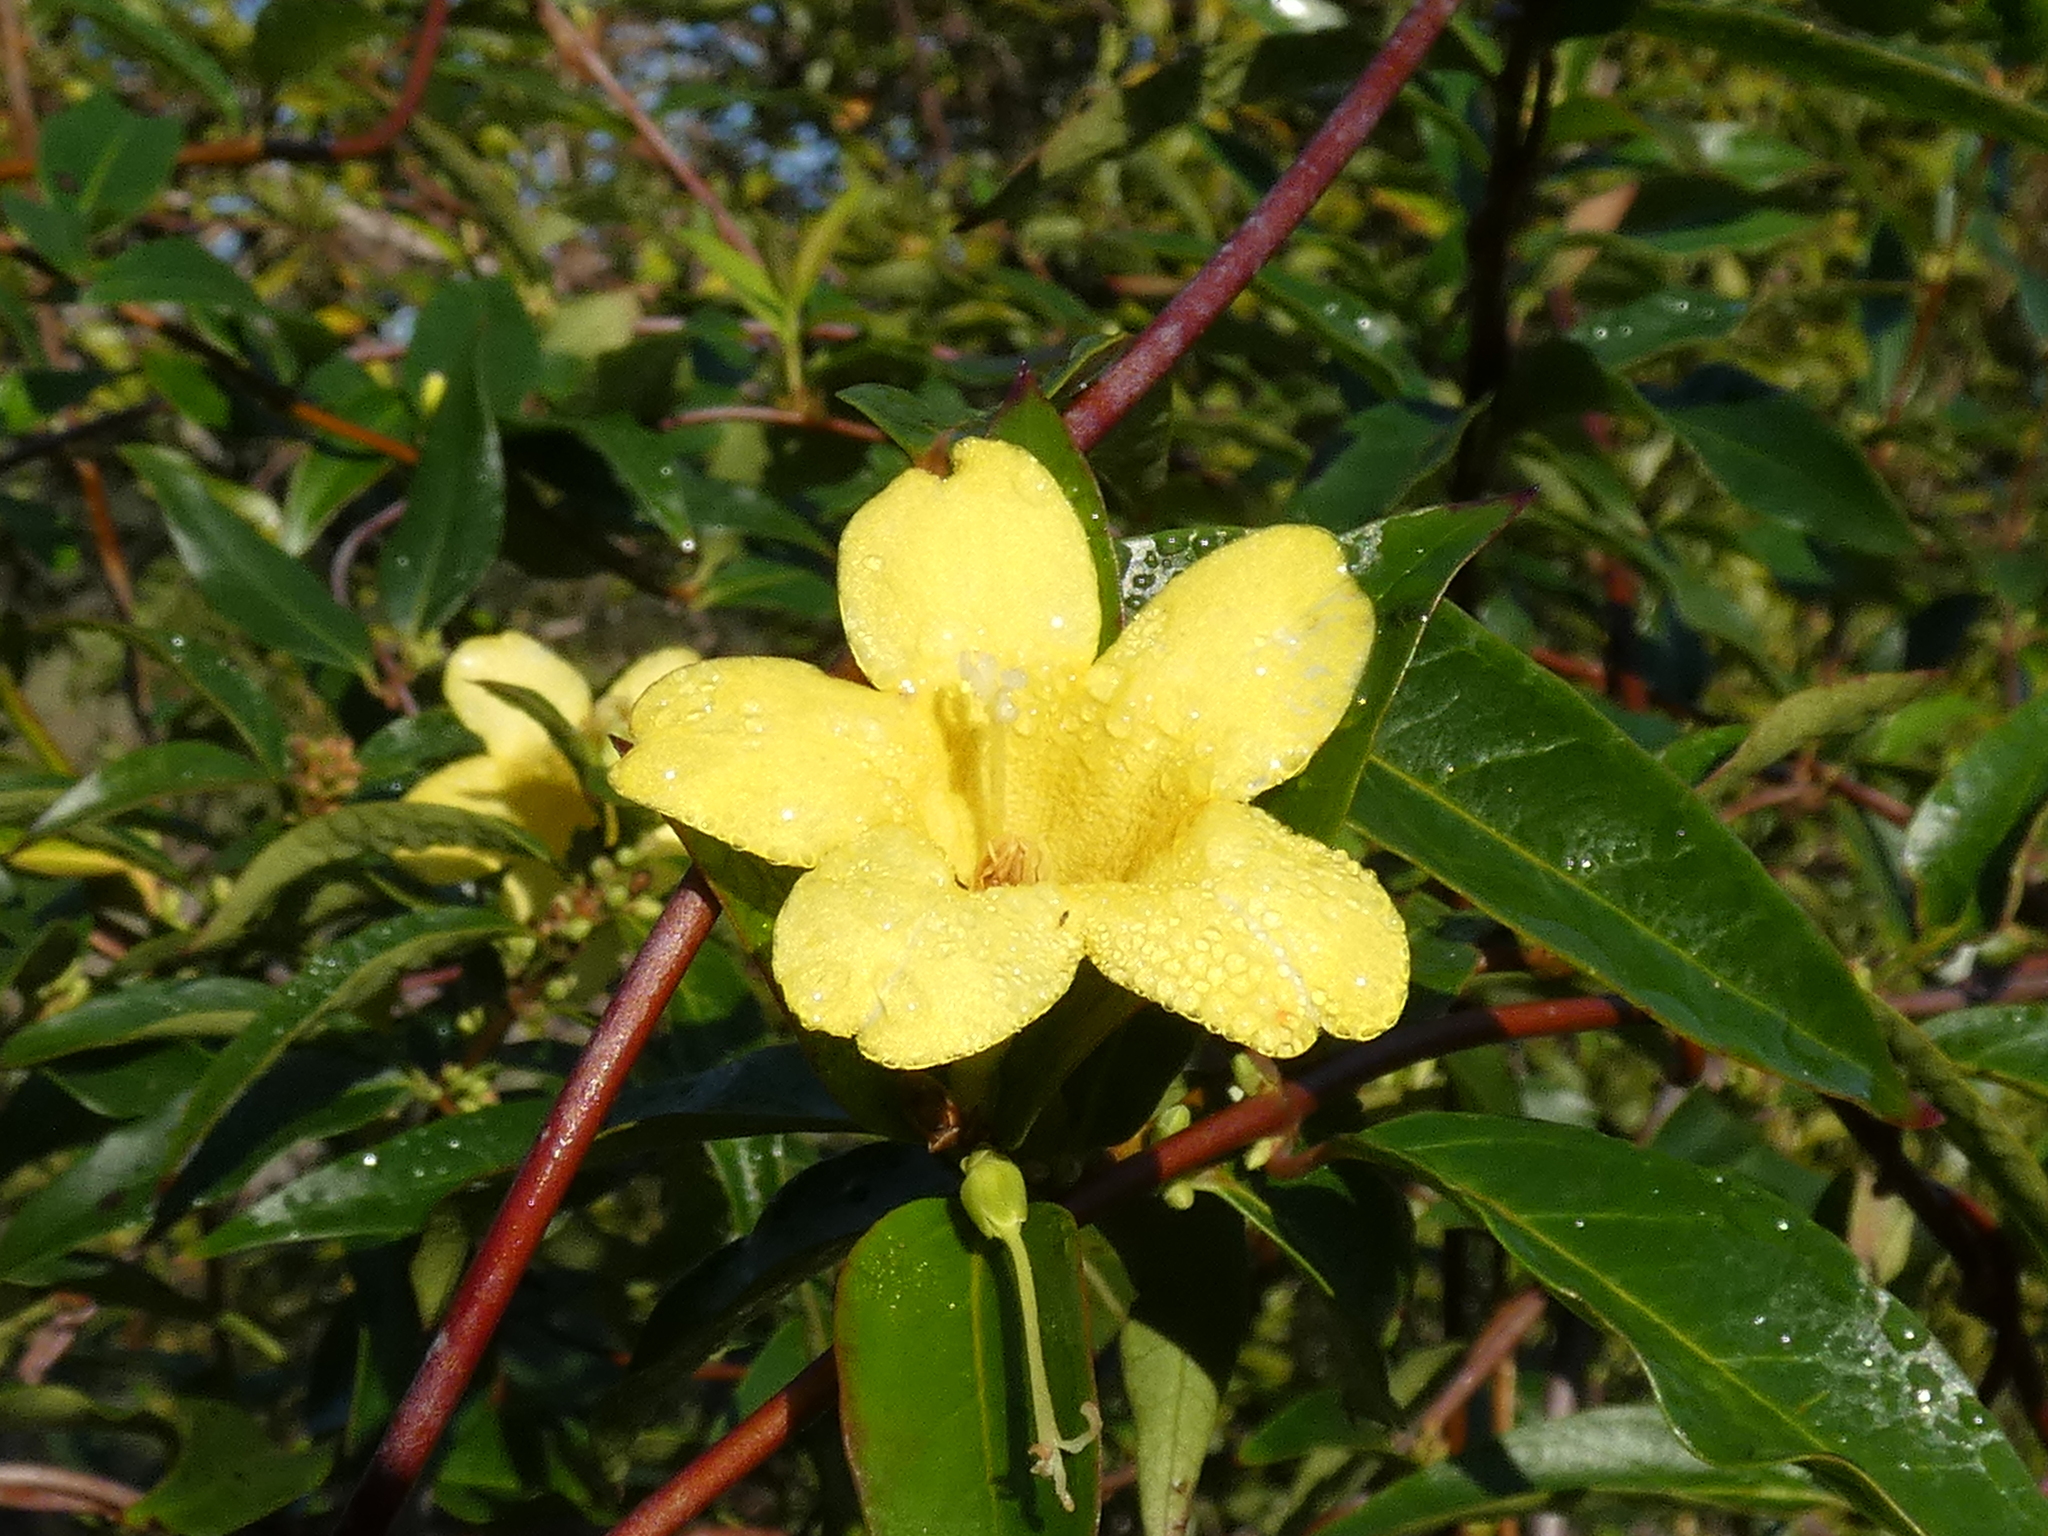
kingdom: Plantae
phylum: Tracheophyta
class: Magnoliopsida
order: Gentianales
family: Gelsemiaceae
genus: Gelsemium
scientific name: Gelsemium sempervirens
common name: Carolina-jasmine
